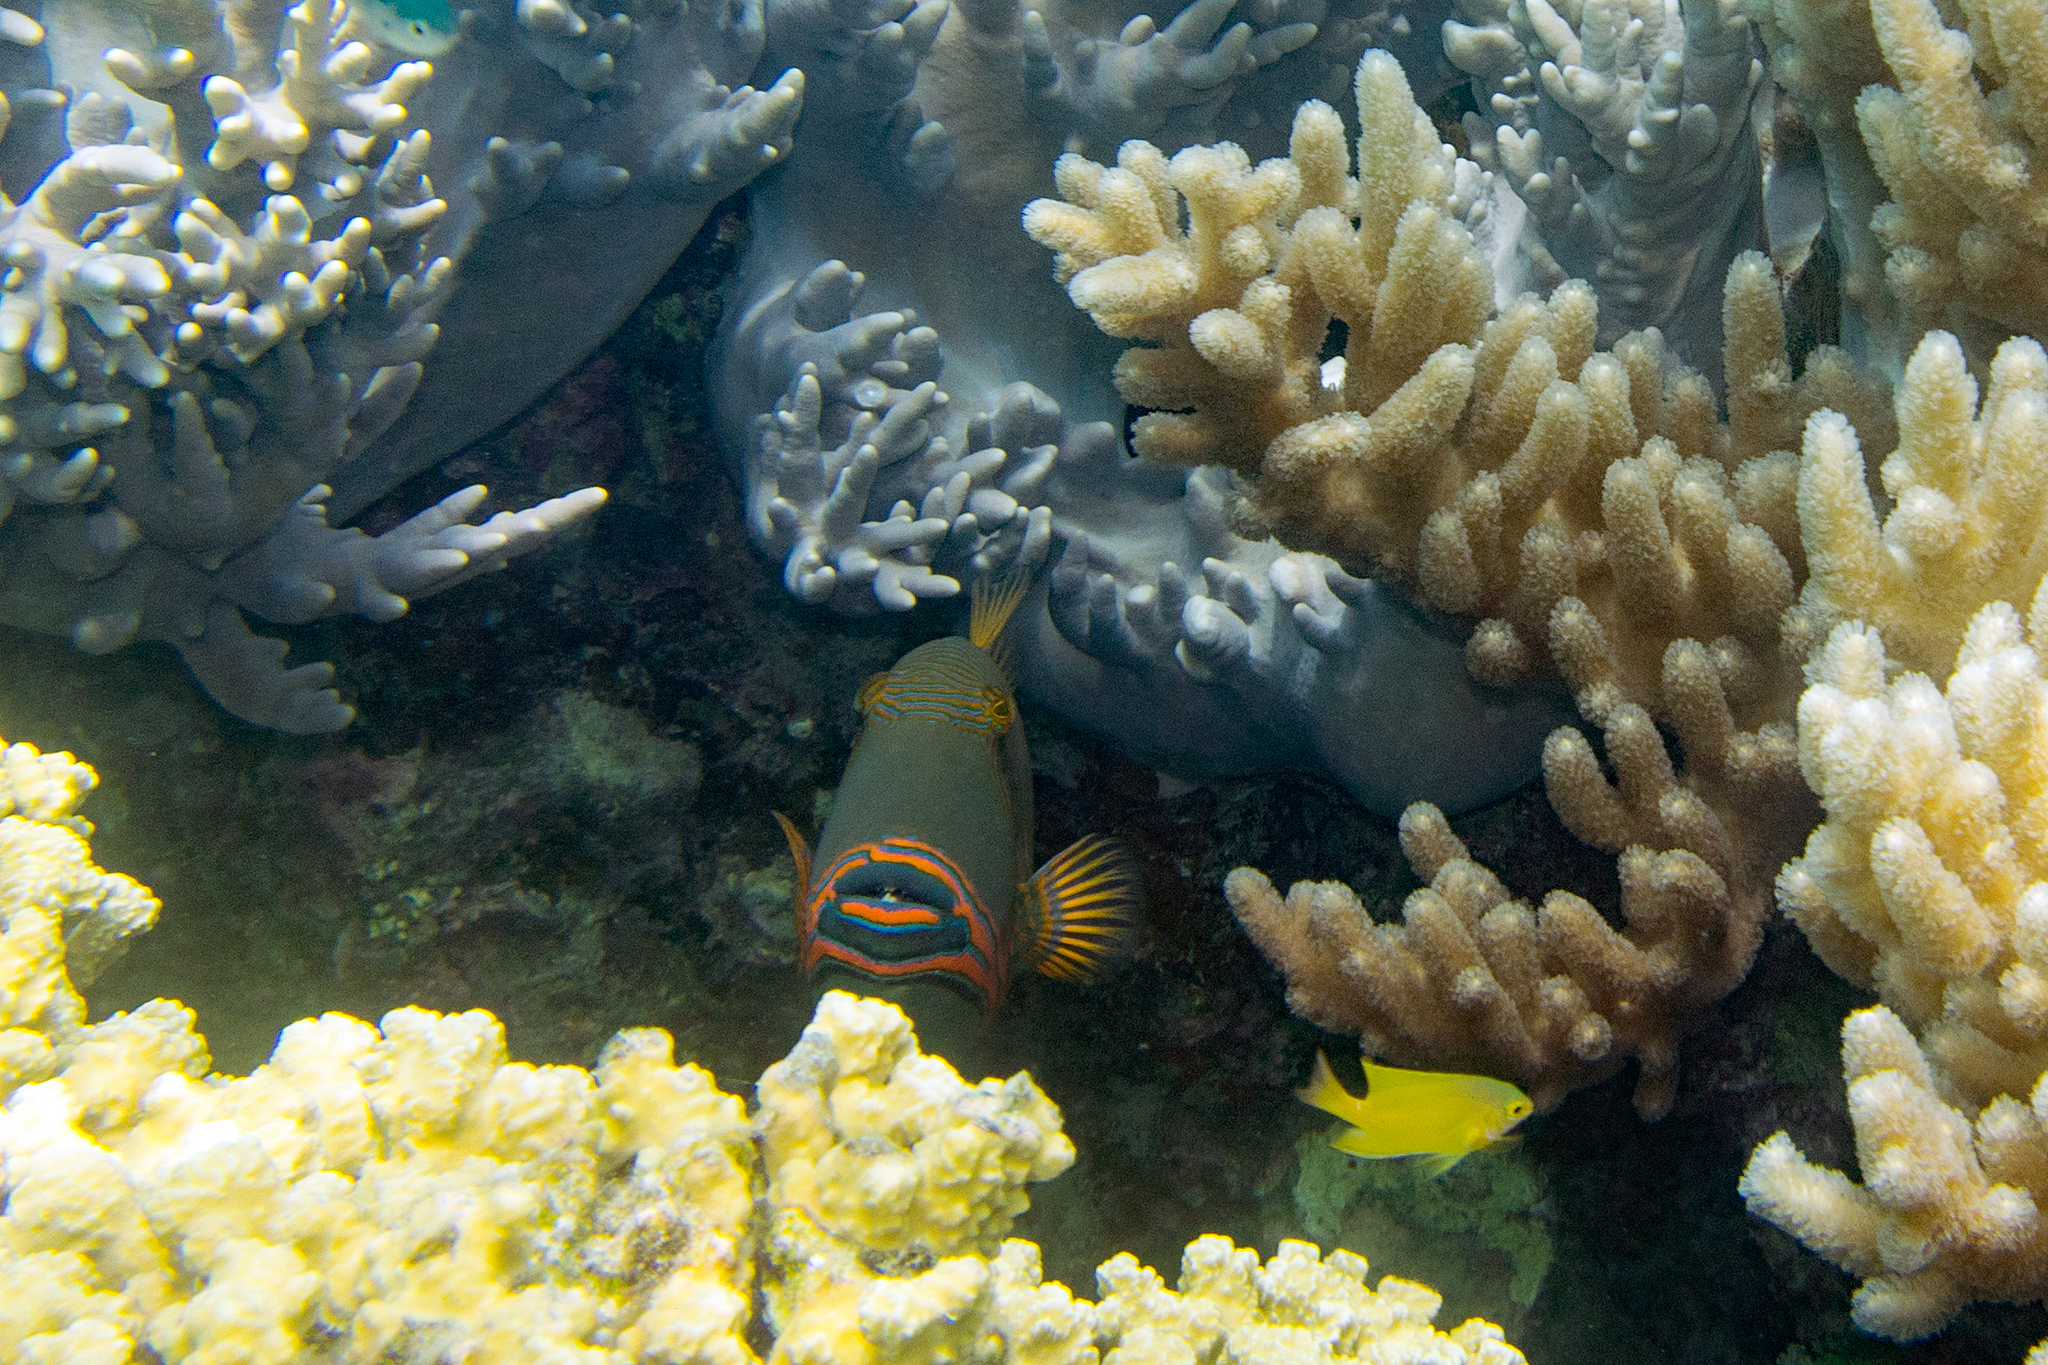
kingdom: Animalia
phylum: Chordata
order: Tetraodontiformes
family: Balistidae
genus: Balistapus
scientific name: Balistapus undulatus
